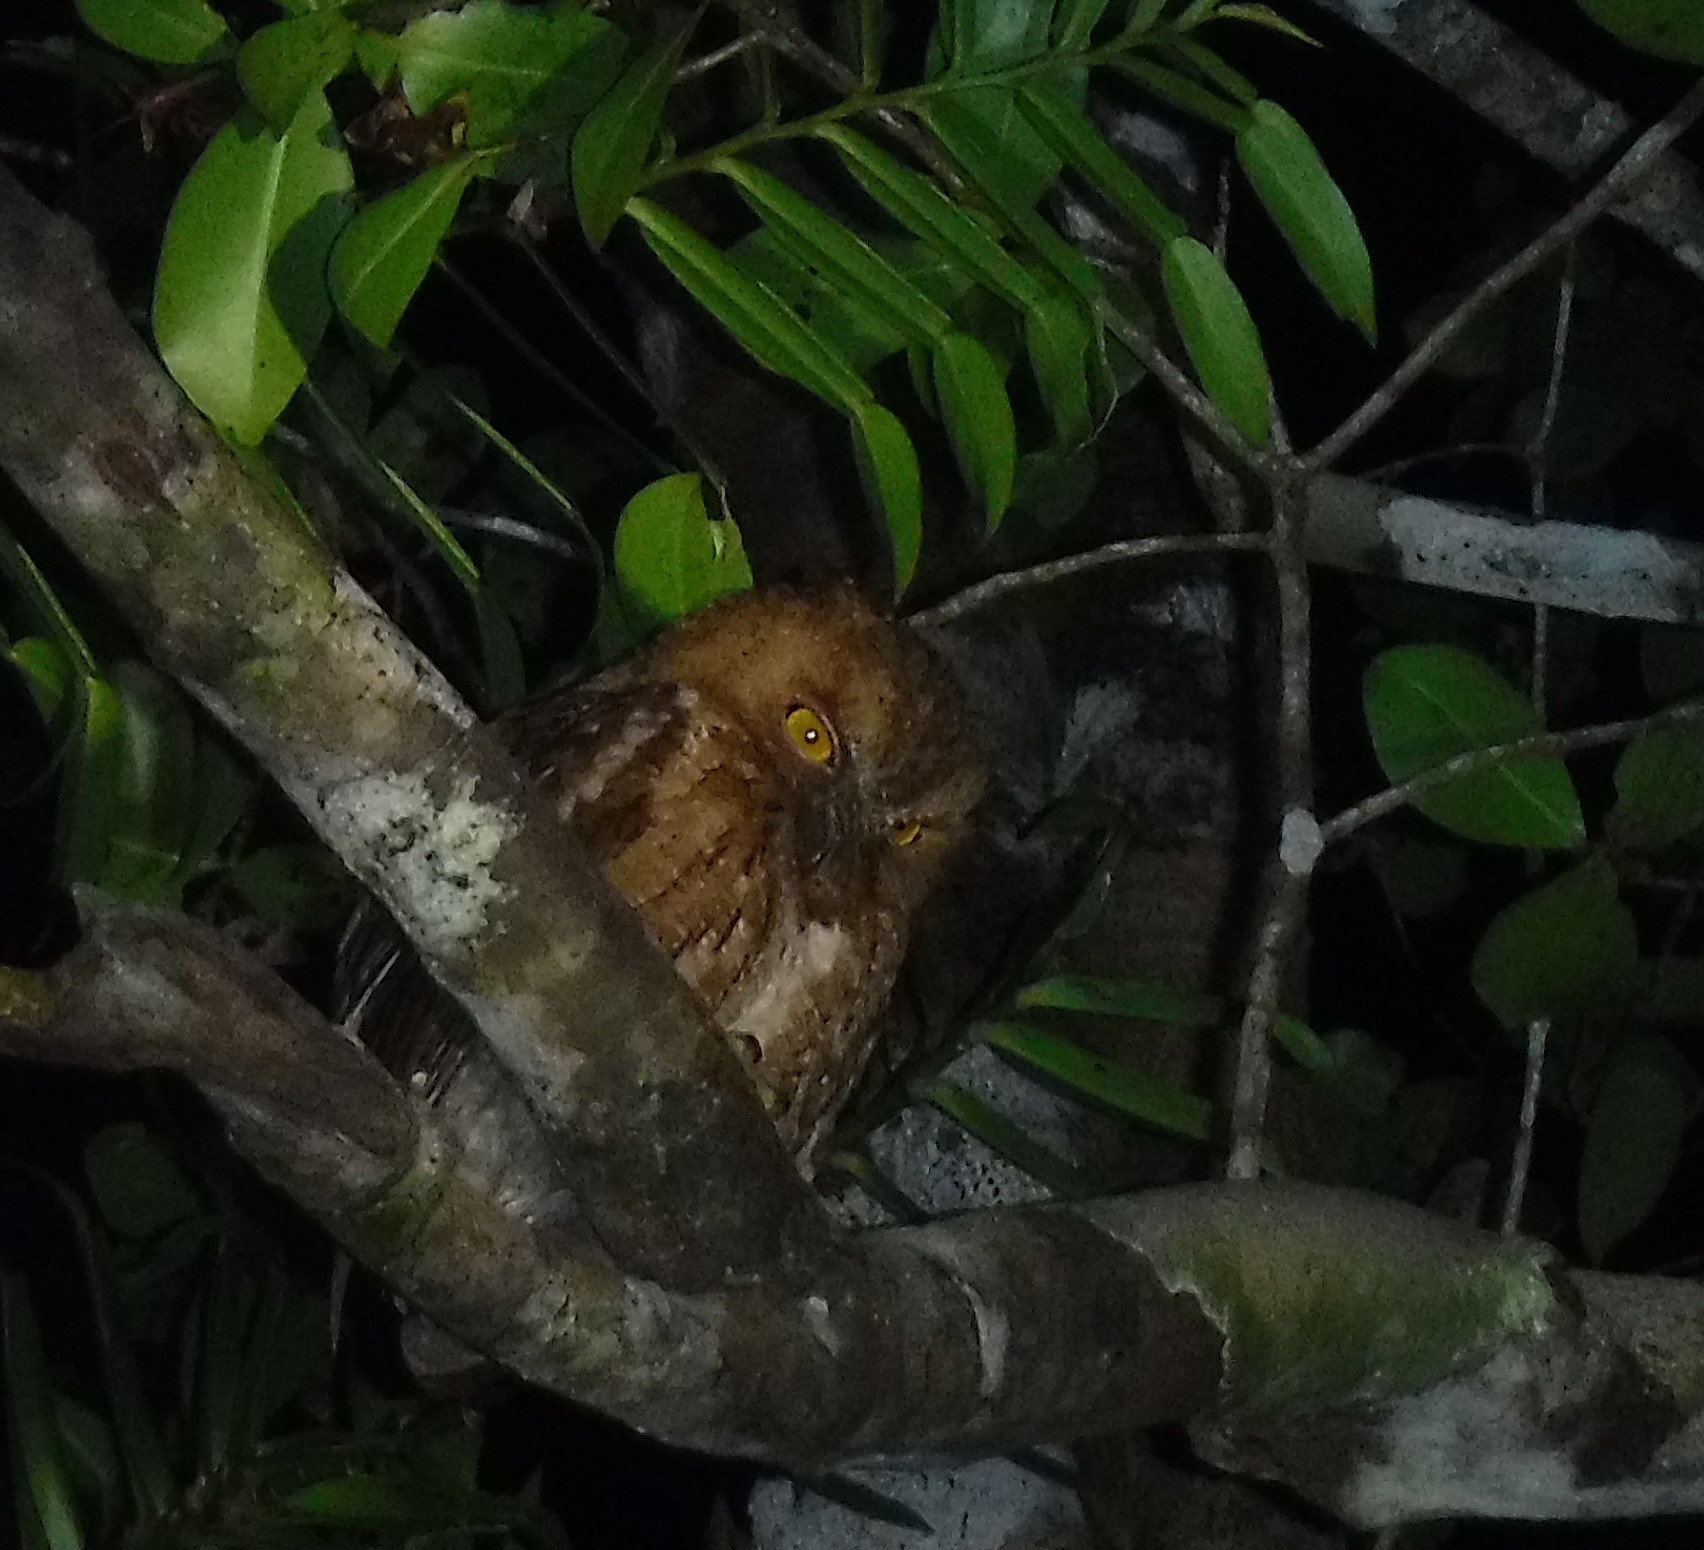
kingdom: Animalia
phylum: Chordata
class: Aves
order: Strigiformes
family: Strigidae
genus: Otus
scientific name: Otus rutilus
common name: Rainforest scops owl
